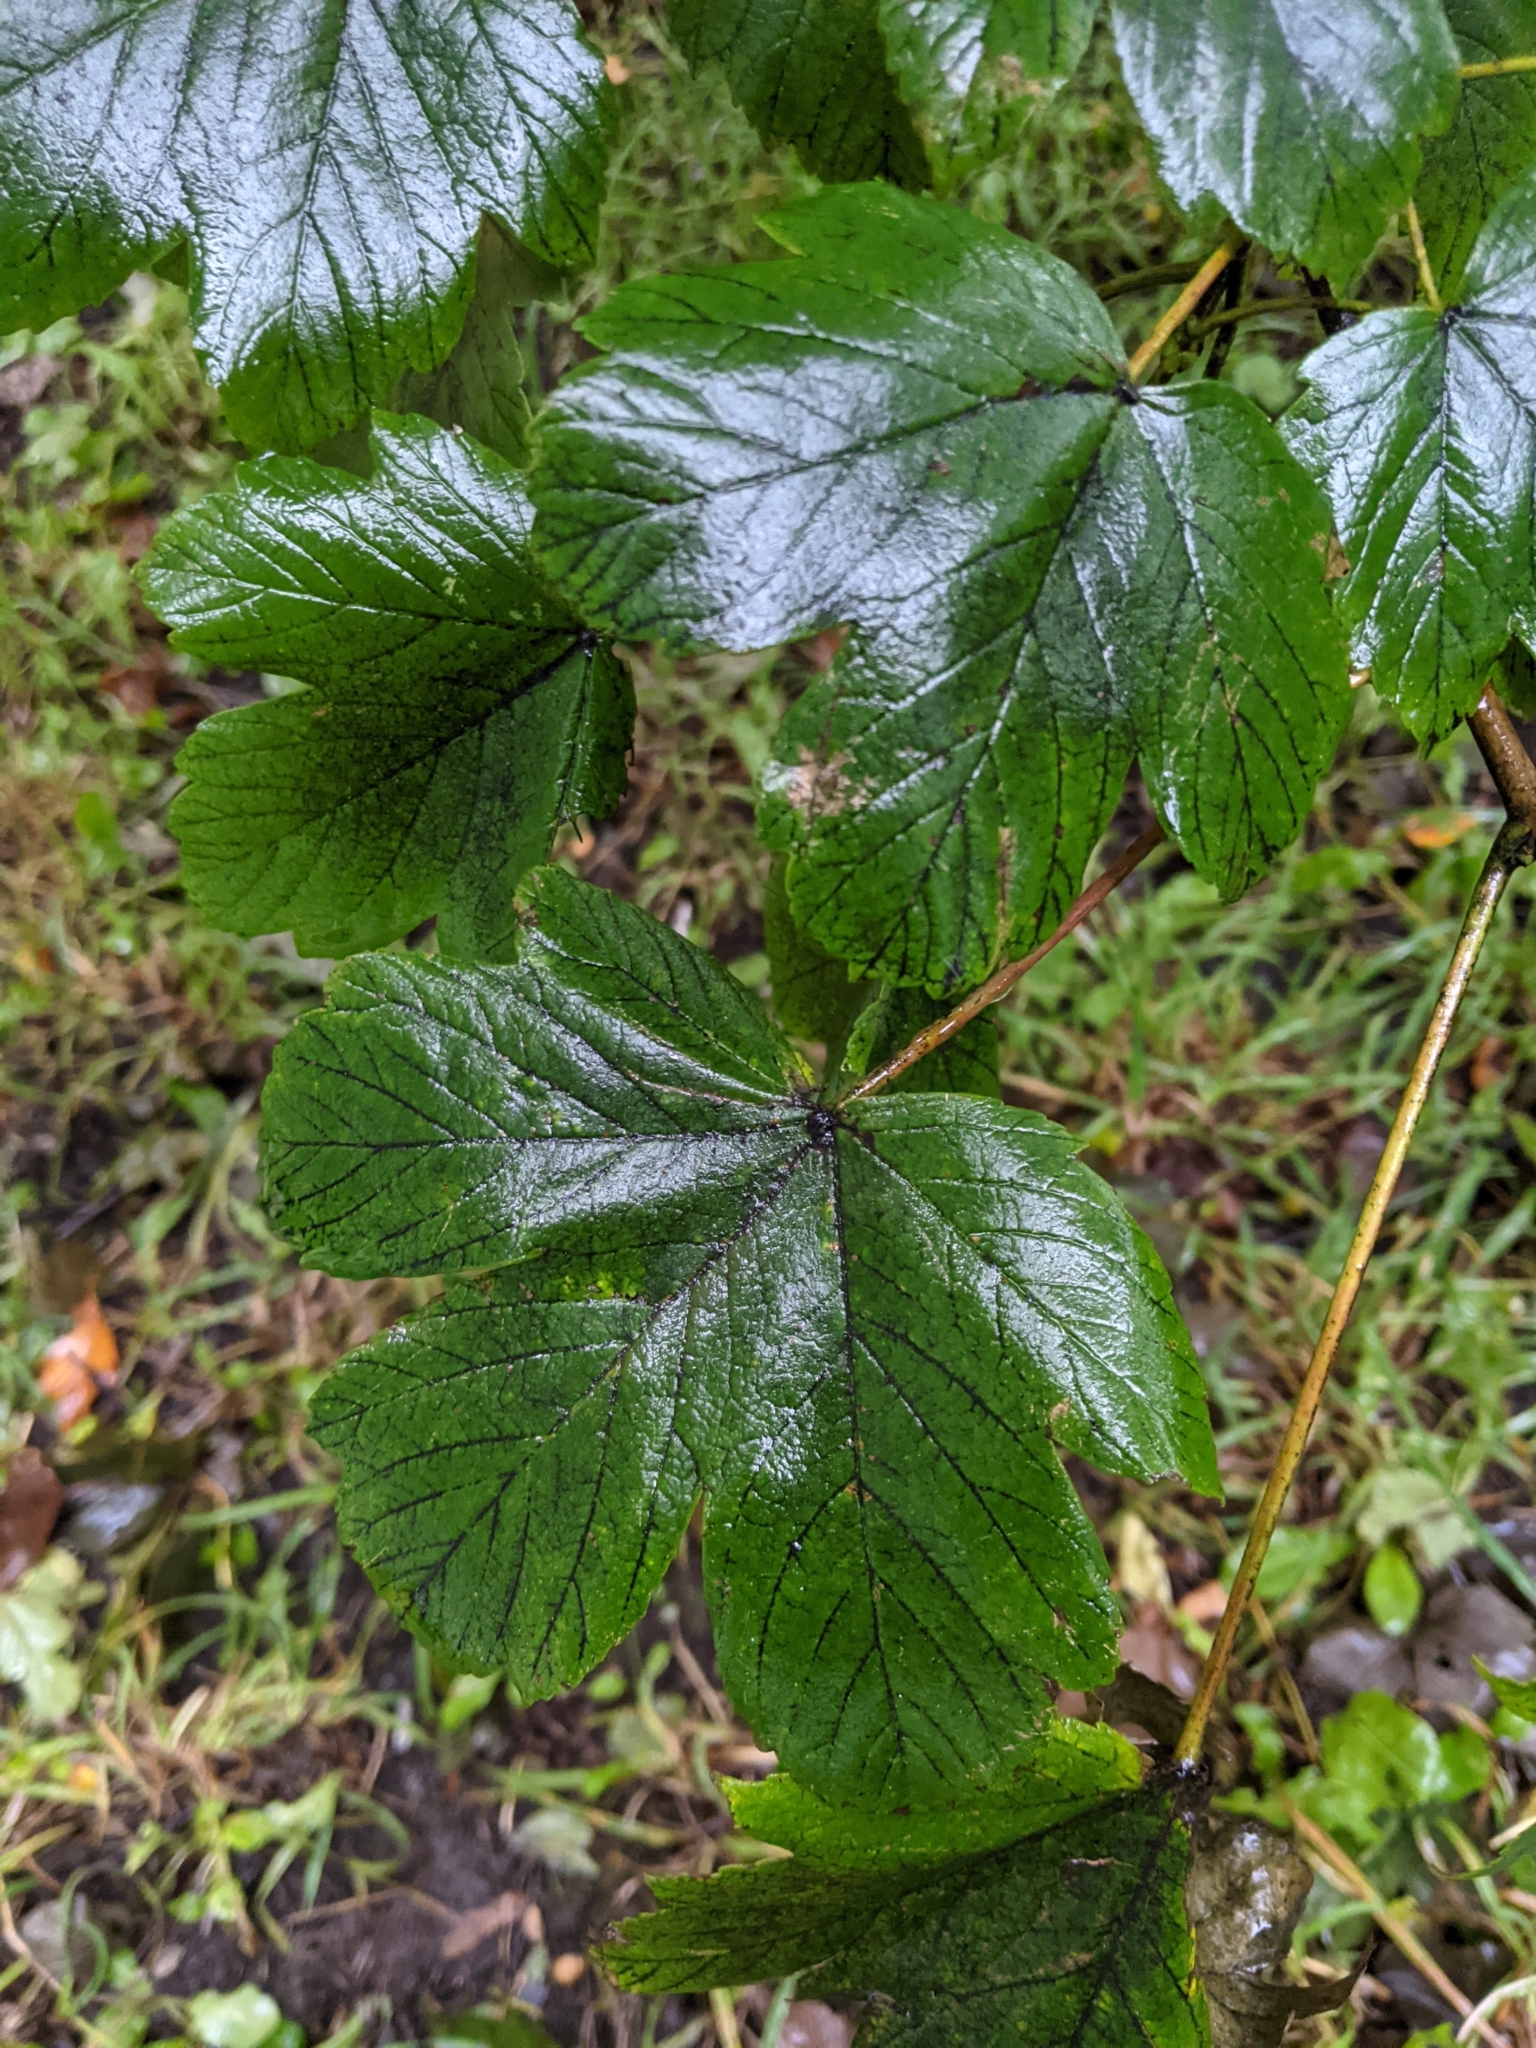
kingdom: Plantae
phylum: Tracheophyta
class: Magnoliopsida
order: Sapindales
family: Sapindaceae
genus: Acer
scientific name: Acer pseudoplatanus
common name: Sycamore
